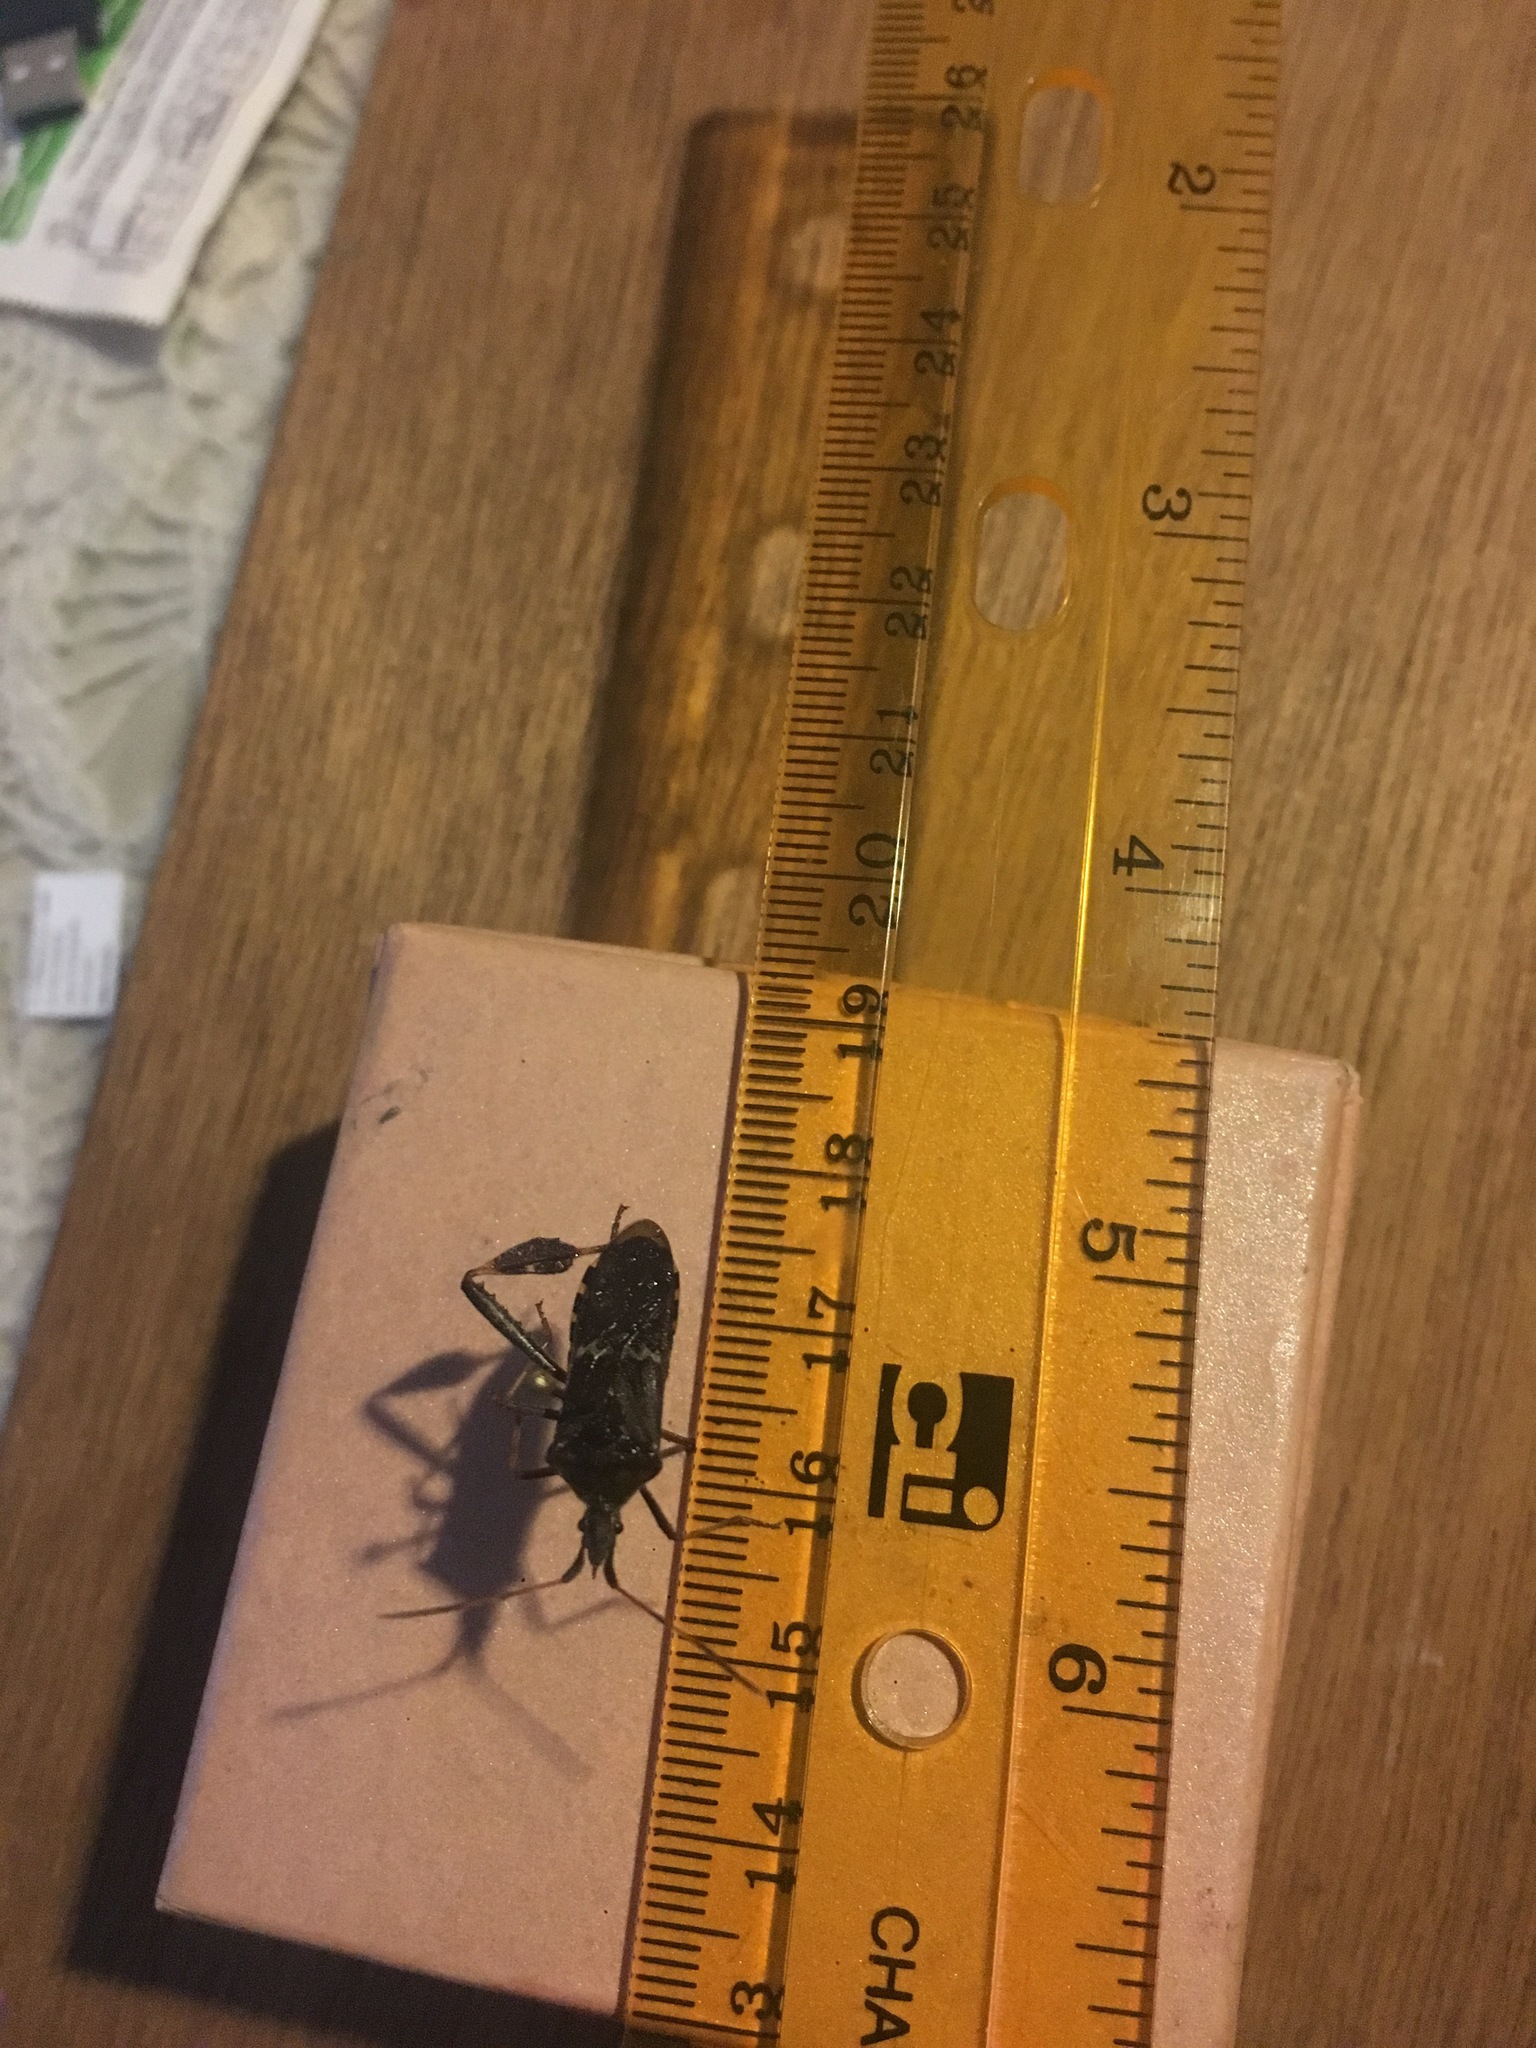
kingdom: Animalia
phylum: Arthropoda
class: Insecta
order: Hemiptera
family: Coreidae
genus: Leptoglossus
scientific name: Leptoglossus clypealis
